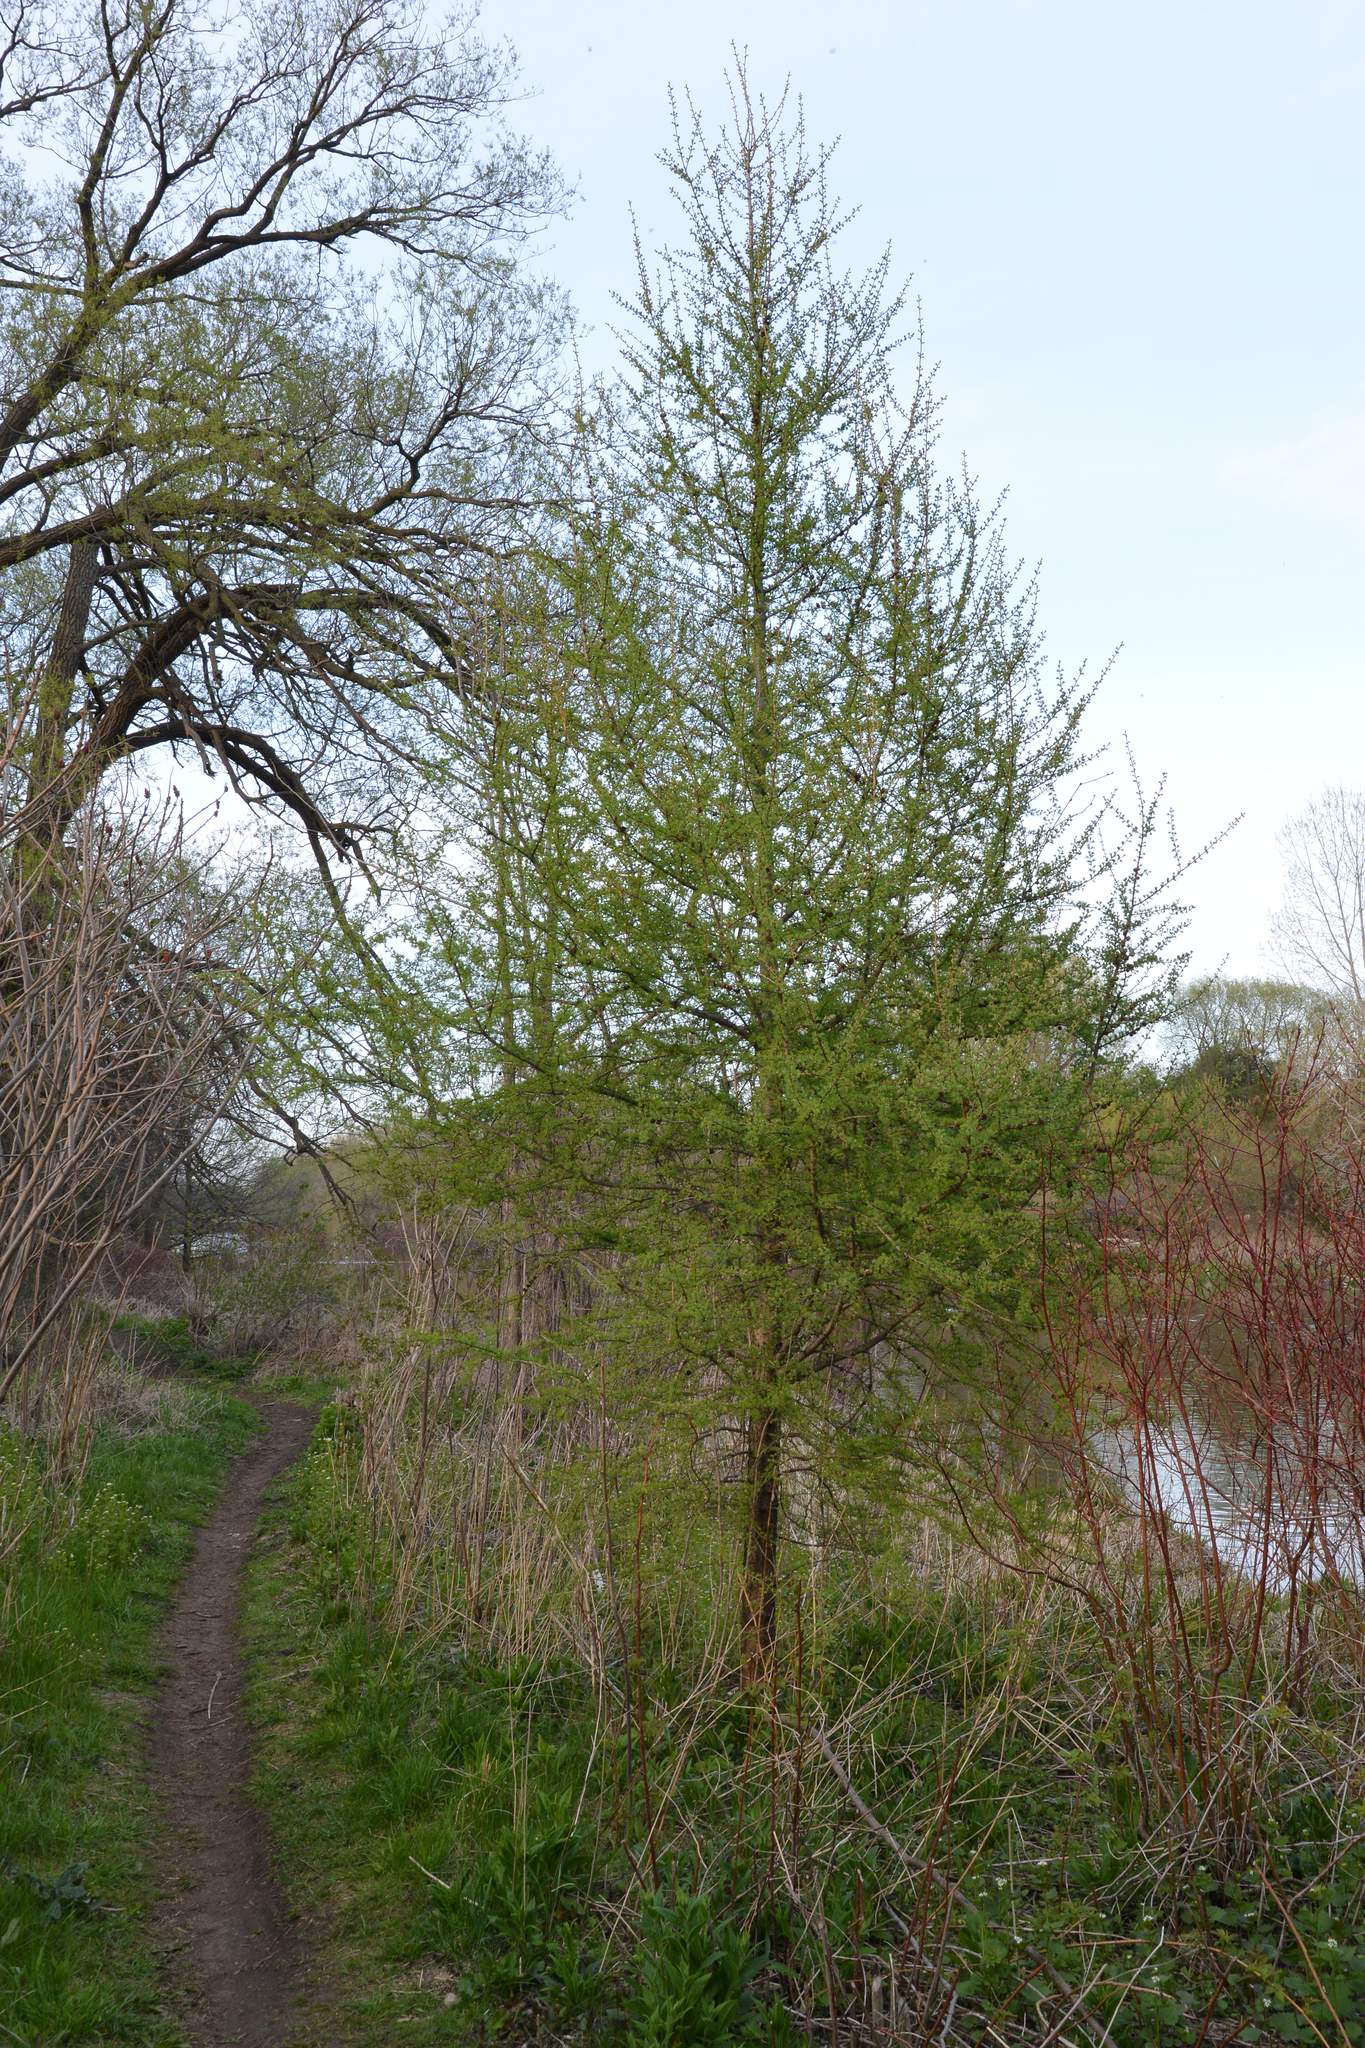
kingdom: Plantae
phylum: Tracheophyta
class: Pinopsida
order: Pinales
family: Pinaceae
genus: Larix
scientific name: Larix laricina
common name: American larch
